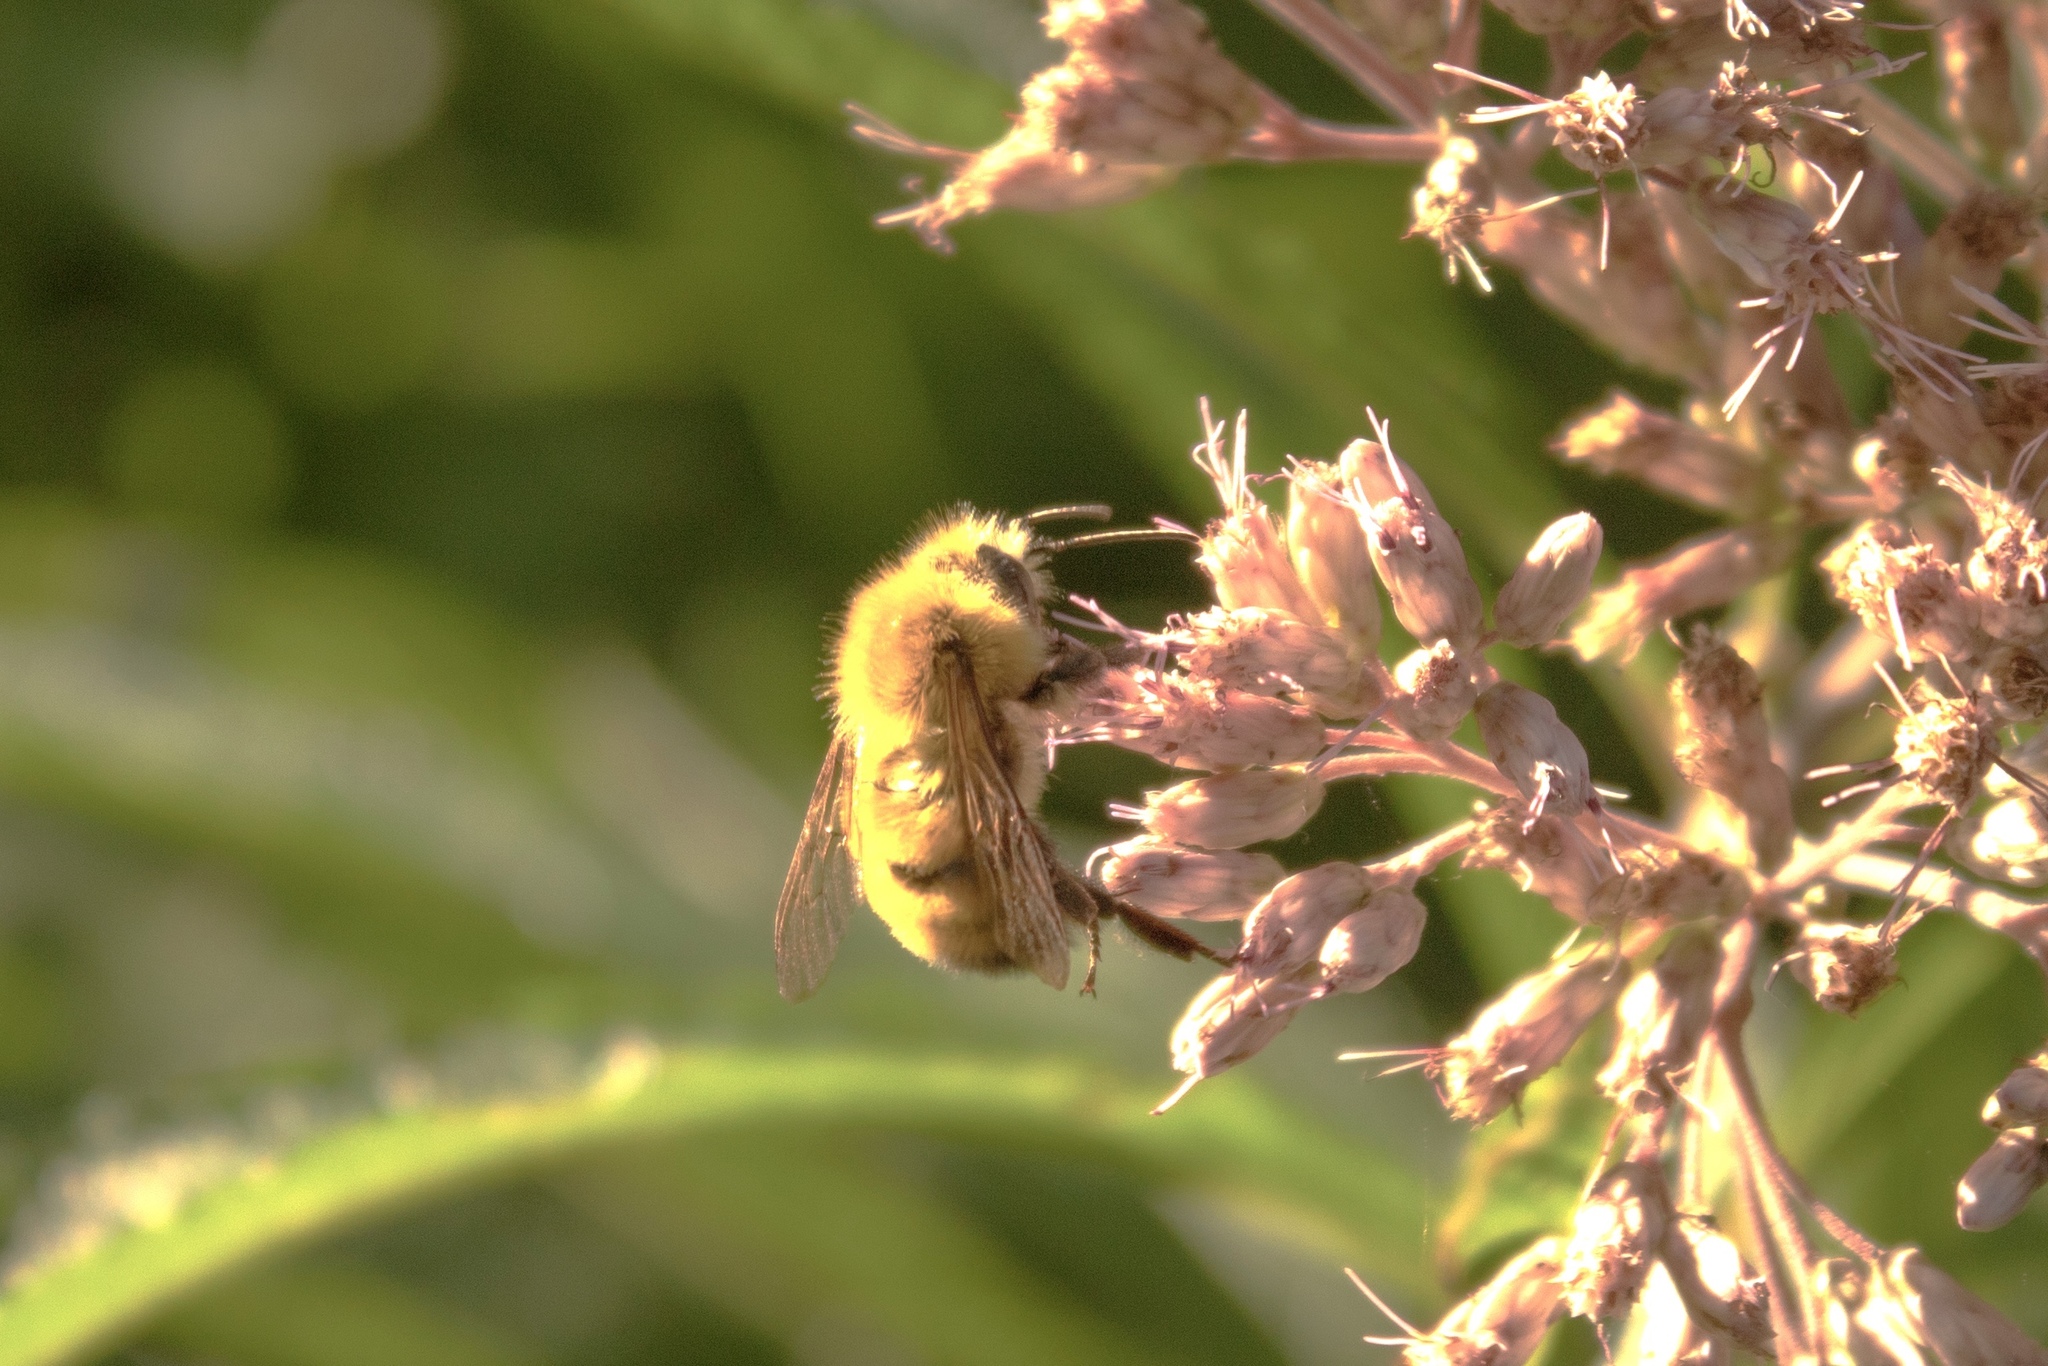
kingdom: Animalia
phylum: Arthropoda
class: Insecta
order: Hymenoptera
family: Apidae
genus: Bombus
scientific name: Bombus perplexus
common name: Confusing bumble bee
